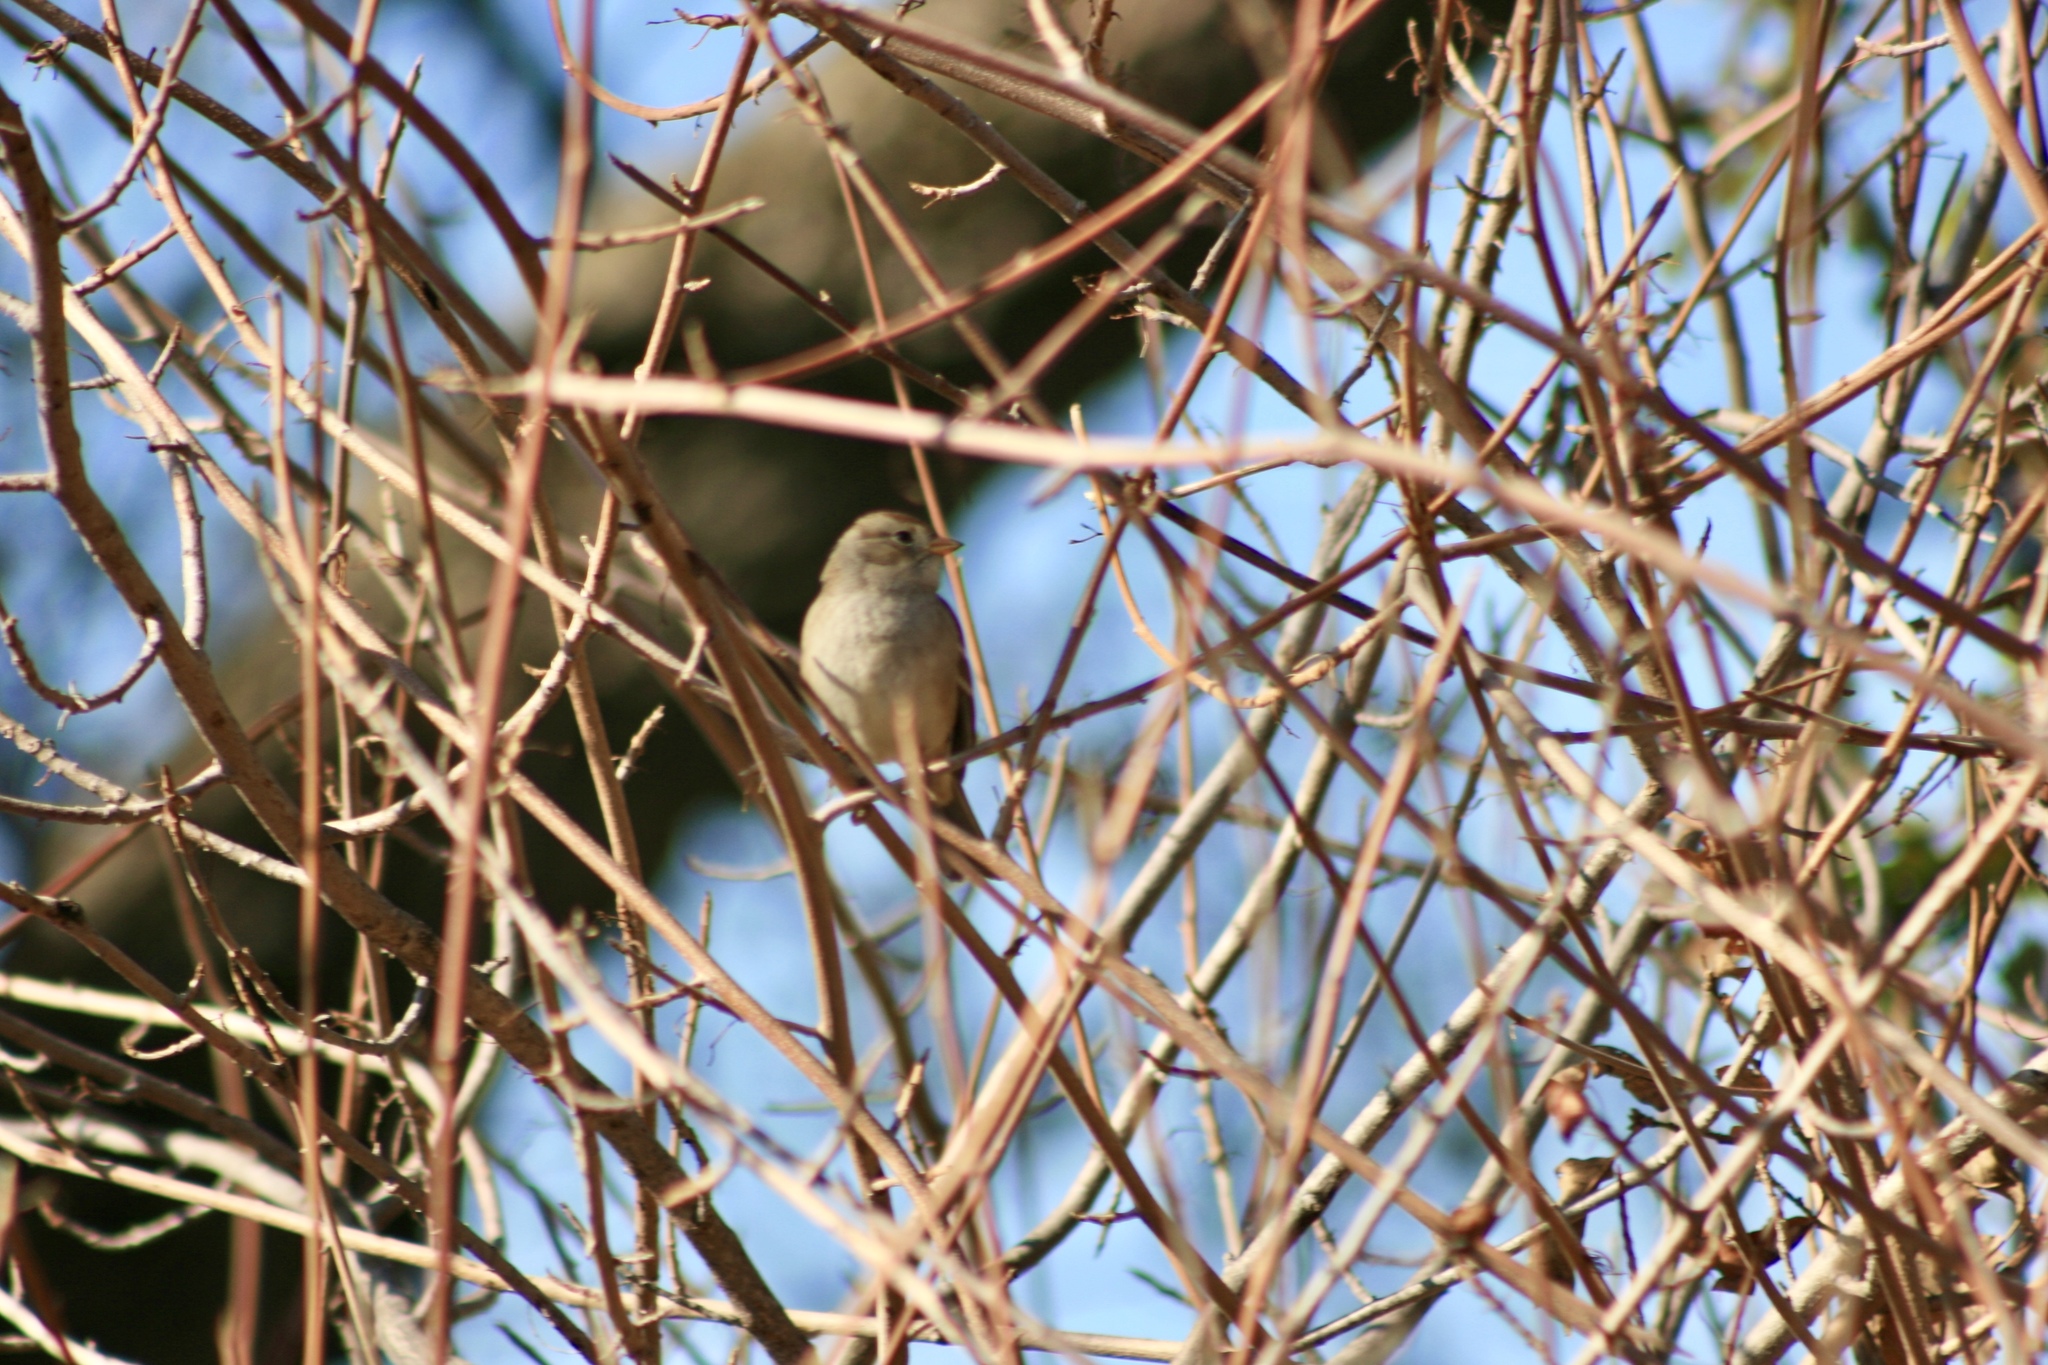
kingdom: Animalia
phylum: Chordata
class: Aves
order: Passeriformes
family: Passerellidae
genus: Zonotrichia
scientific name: Zonotrichia leucophrys
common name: White-crowned sparrow
